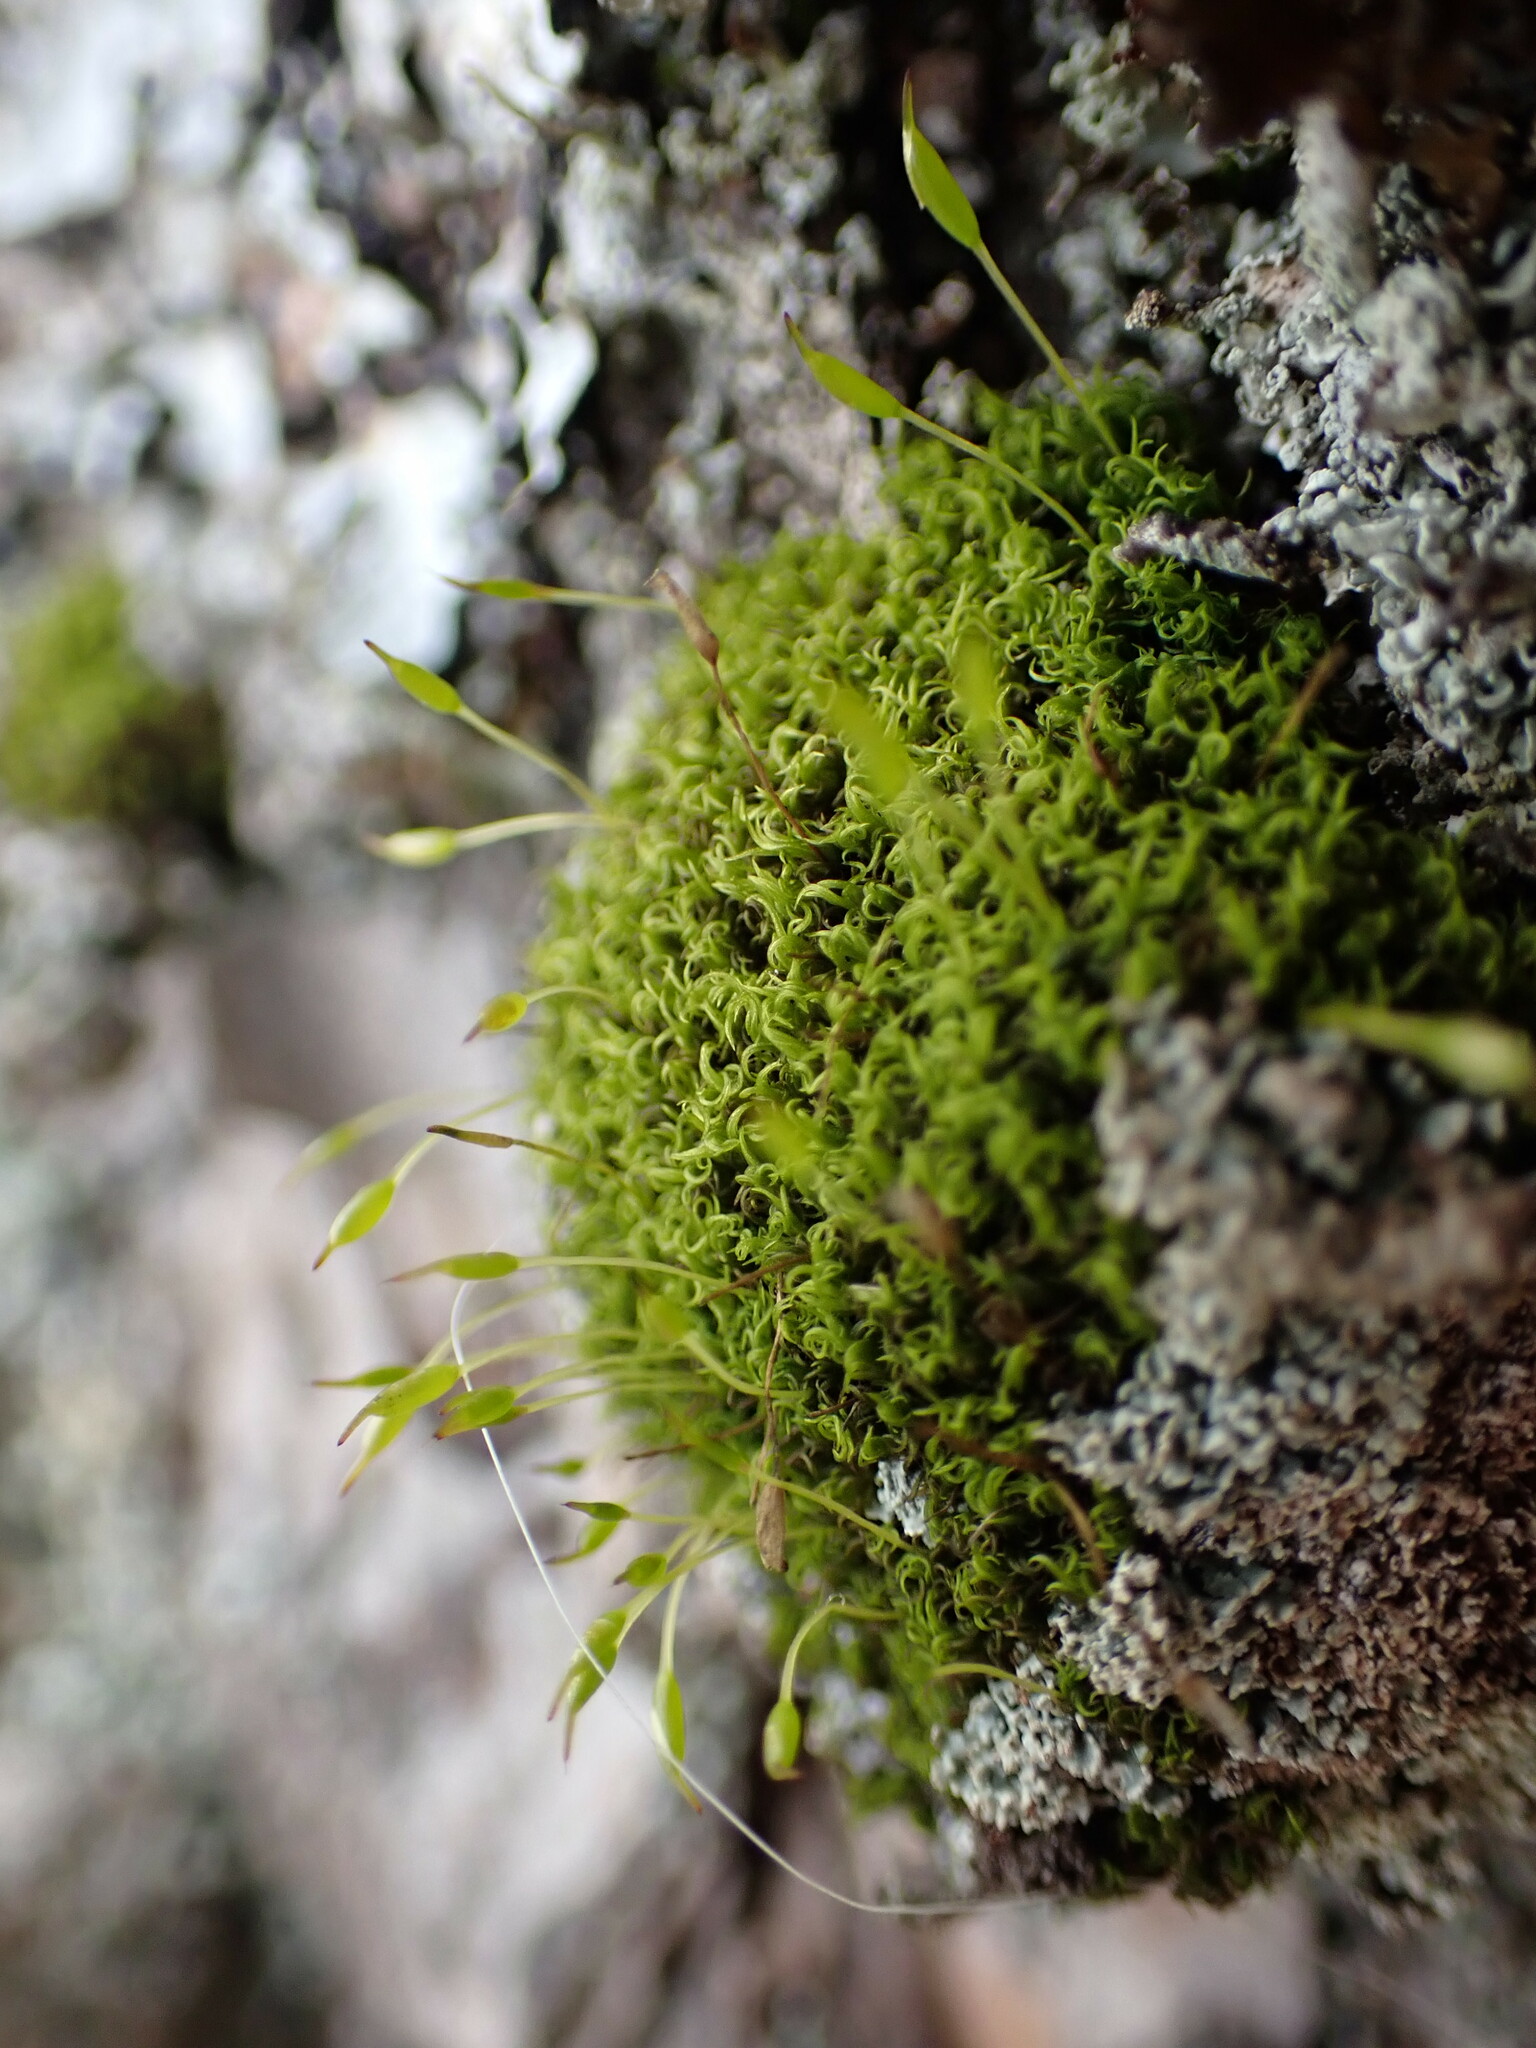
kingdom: Plantae
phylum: Bryophyta
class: Bryopsida
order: Dicranales
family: Rhabdoweisiaceae
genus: Dicranoweisia
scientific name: Dicranoweisia cirrata
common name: Common pincushion
